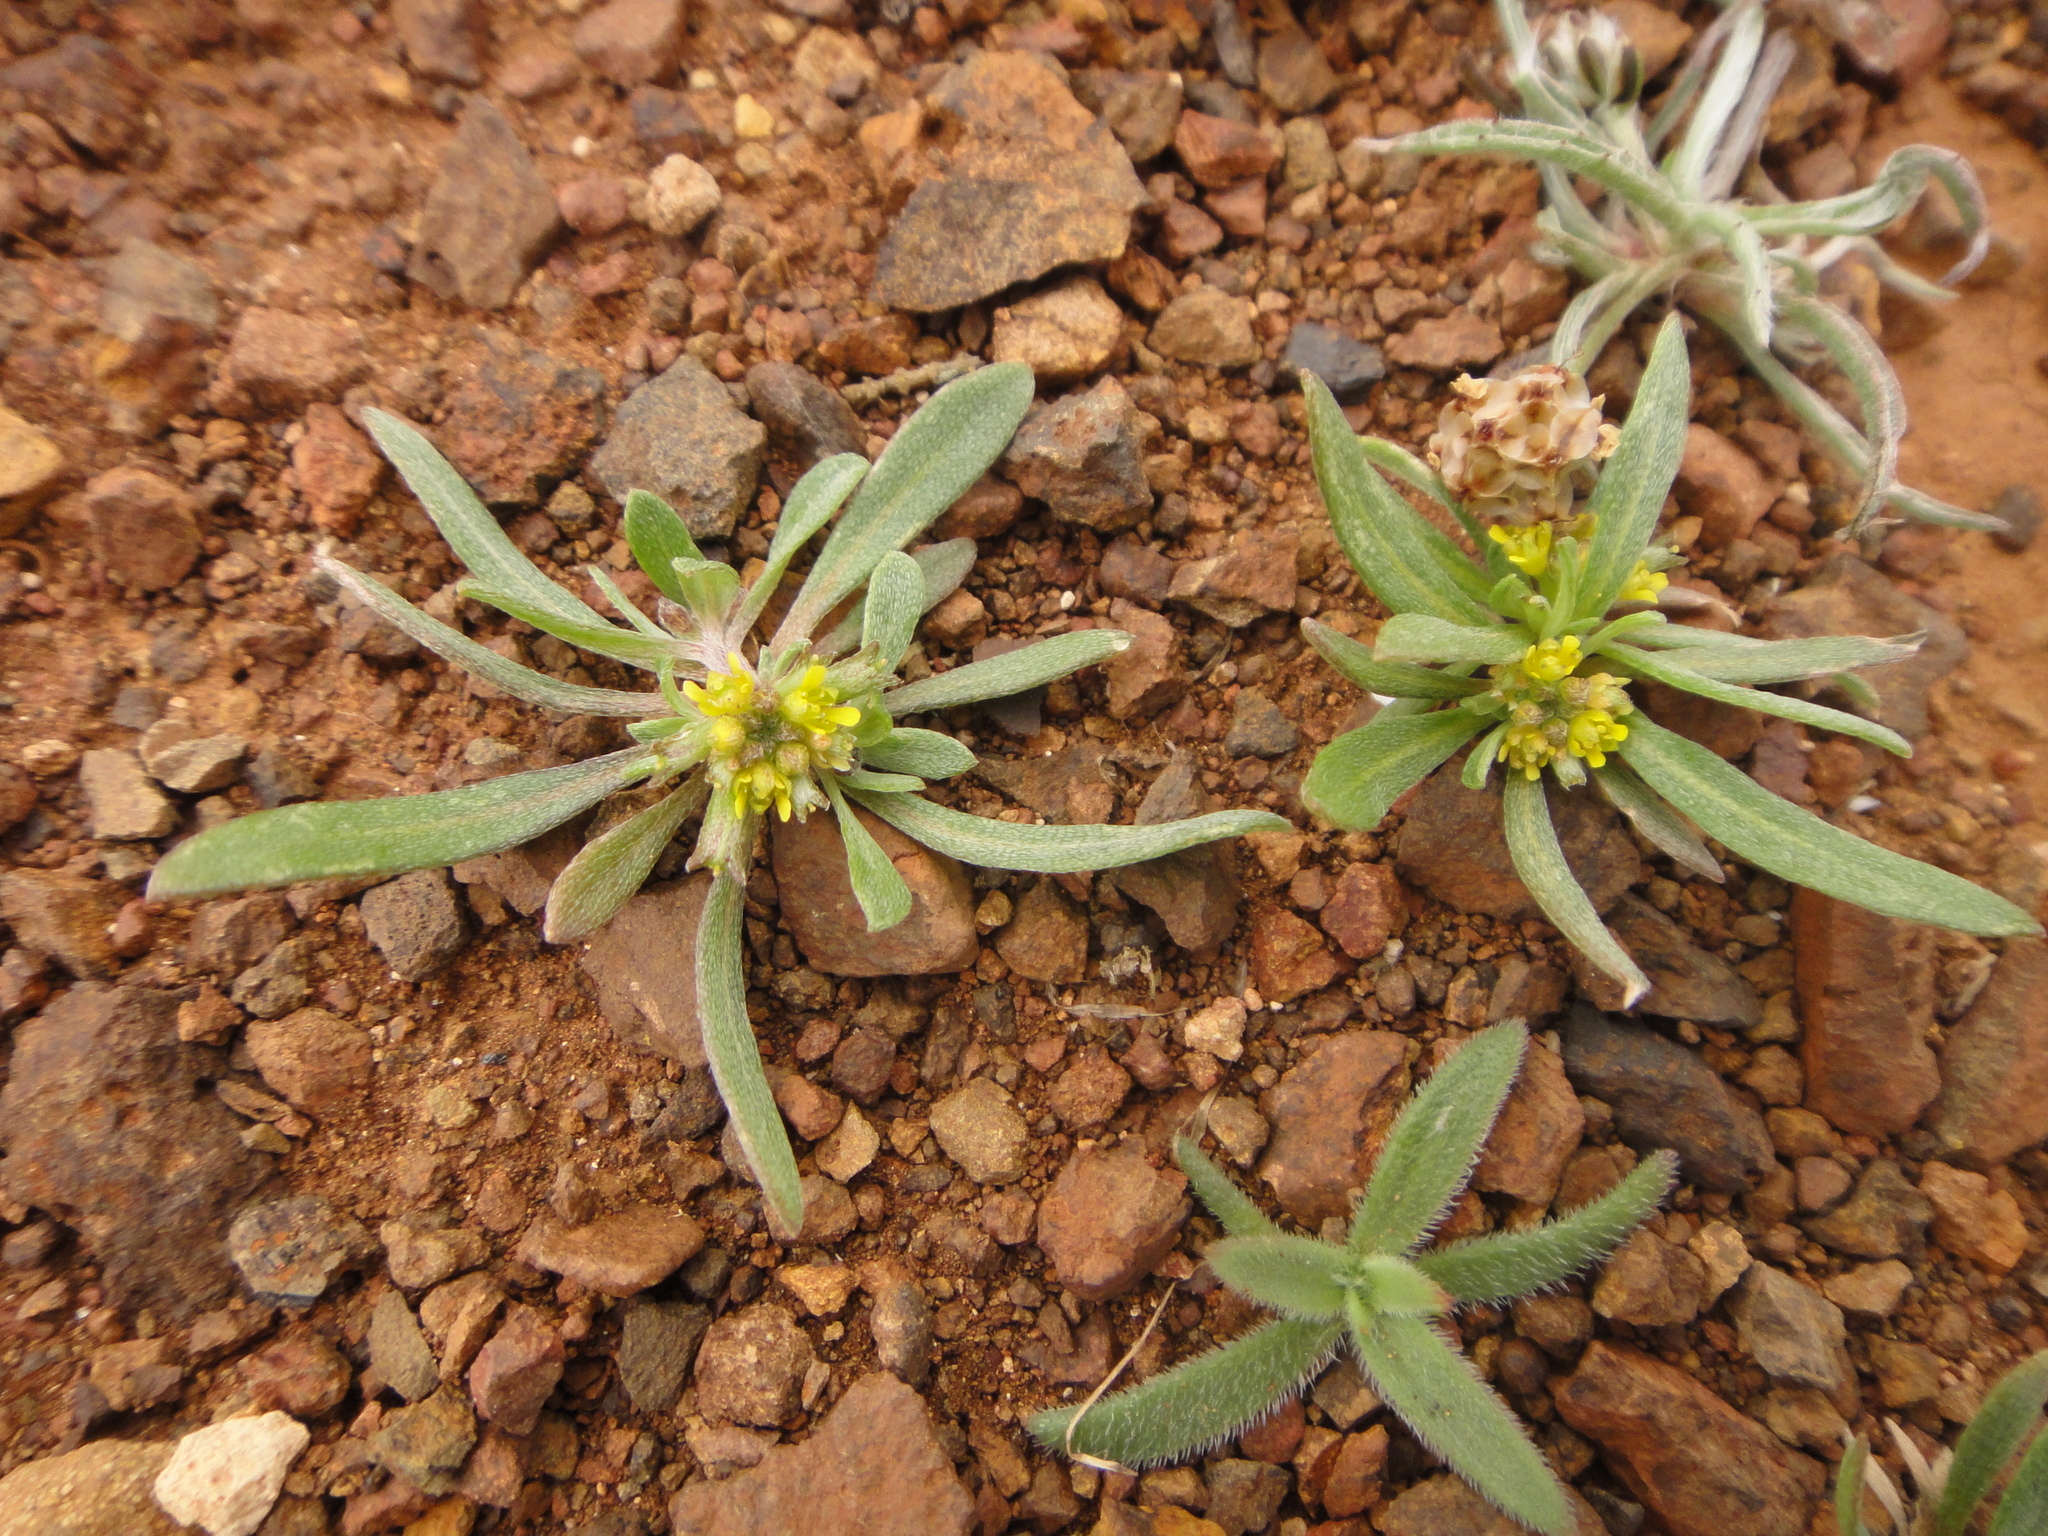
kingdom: Plantae
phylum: Tracheophyta
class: Magnoliopsida
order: Brassicales
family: Brassicaceae
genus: Notoceras
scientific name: Notoceras bicorne
